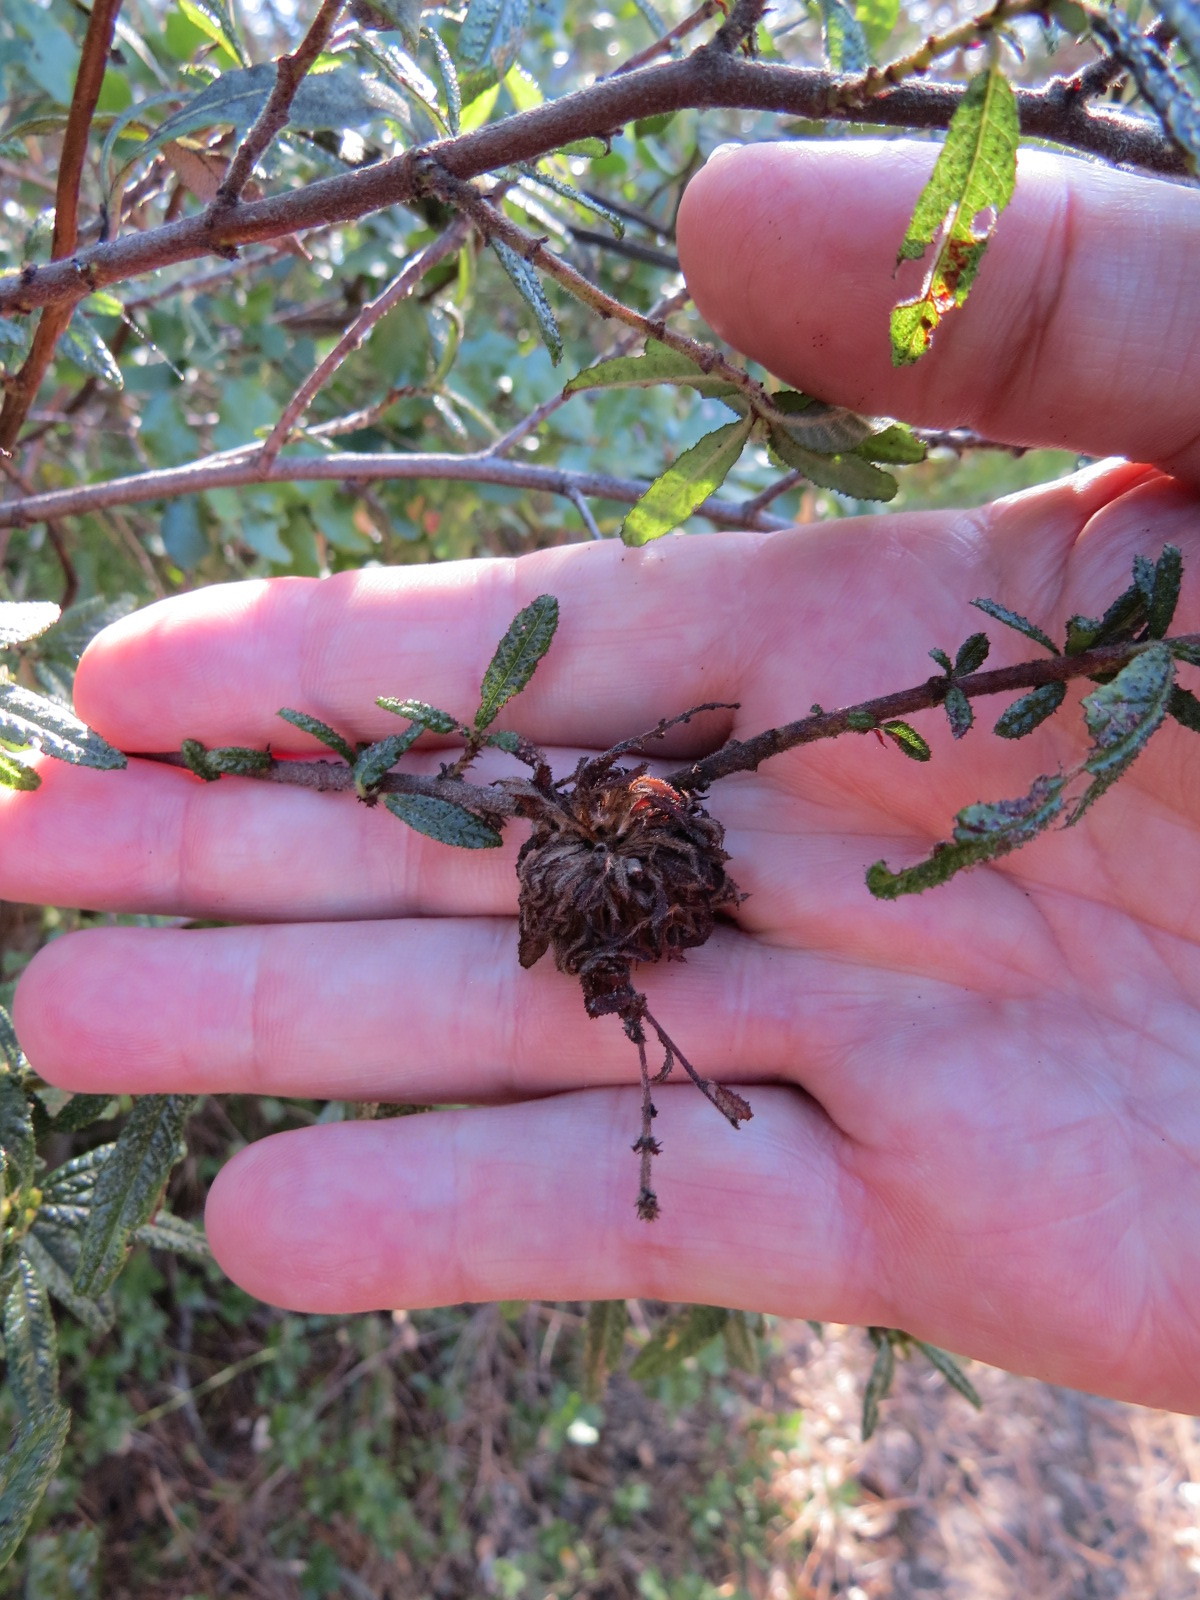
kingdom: Animalia
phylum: Arthropoda
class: Insecta
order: Diptera
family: Cecidomyiidae
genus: Asphondylia
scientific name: Asphondylia ceanothi
